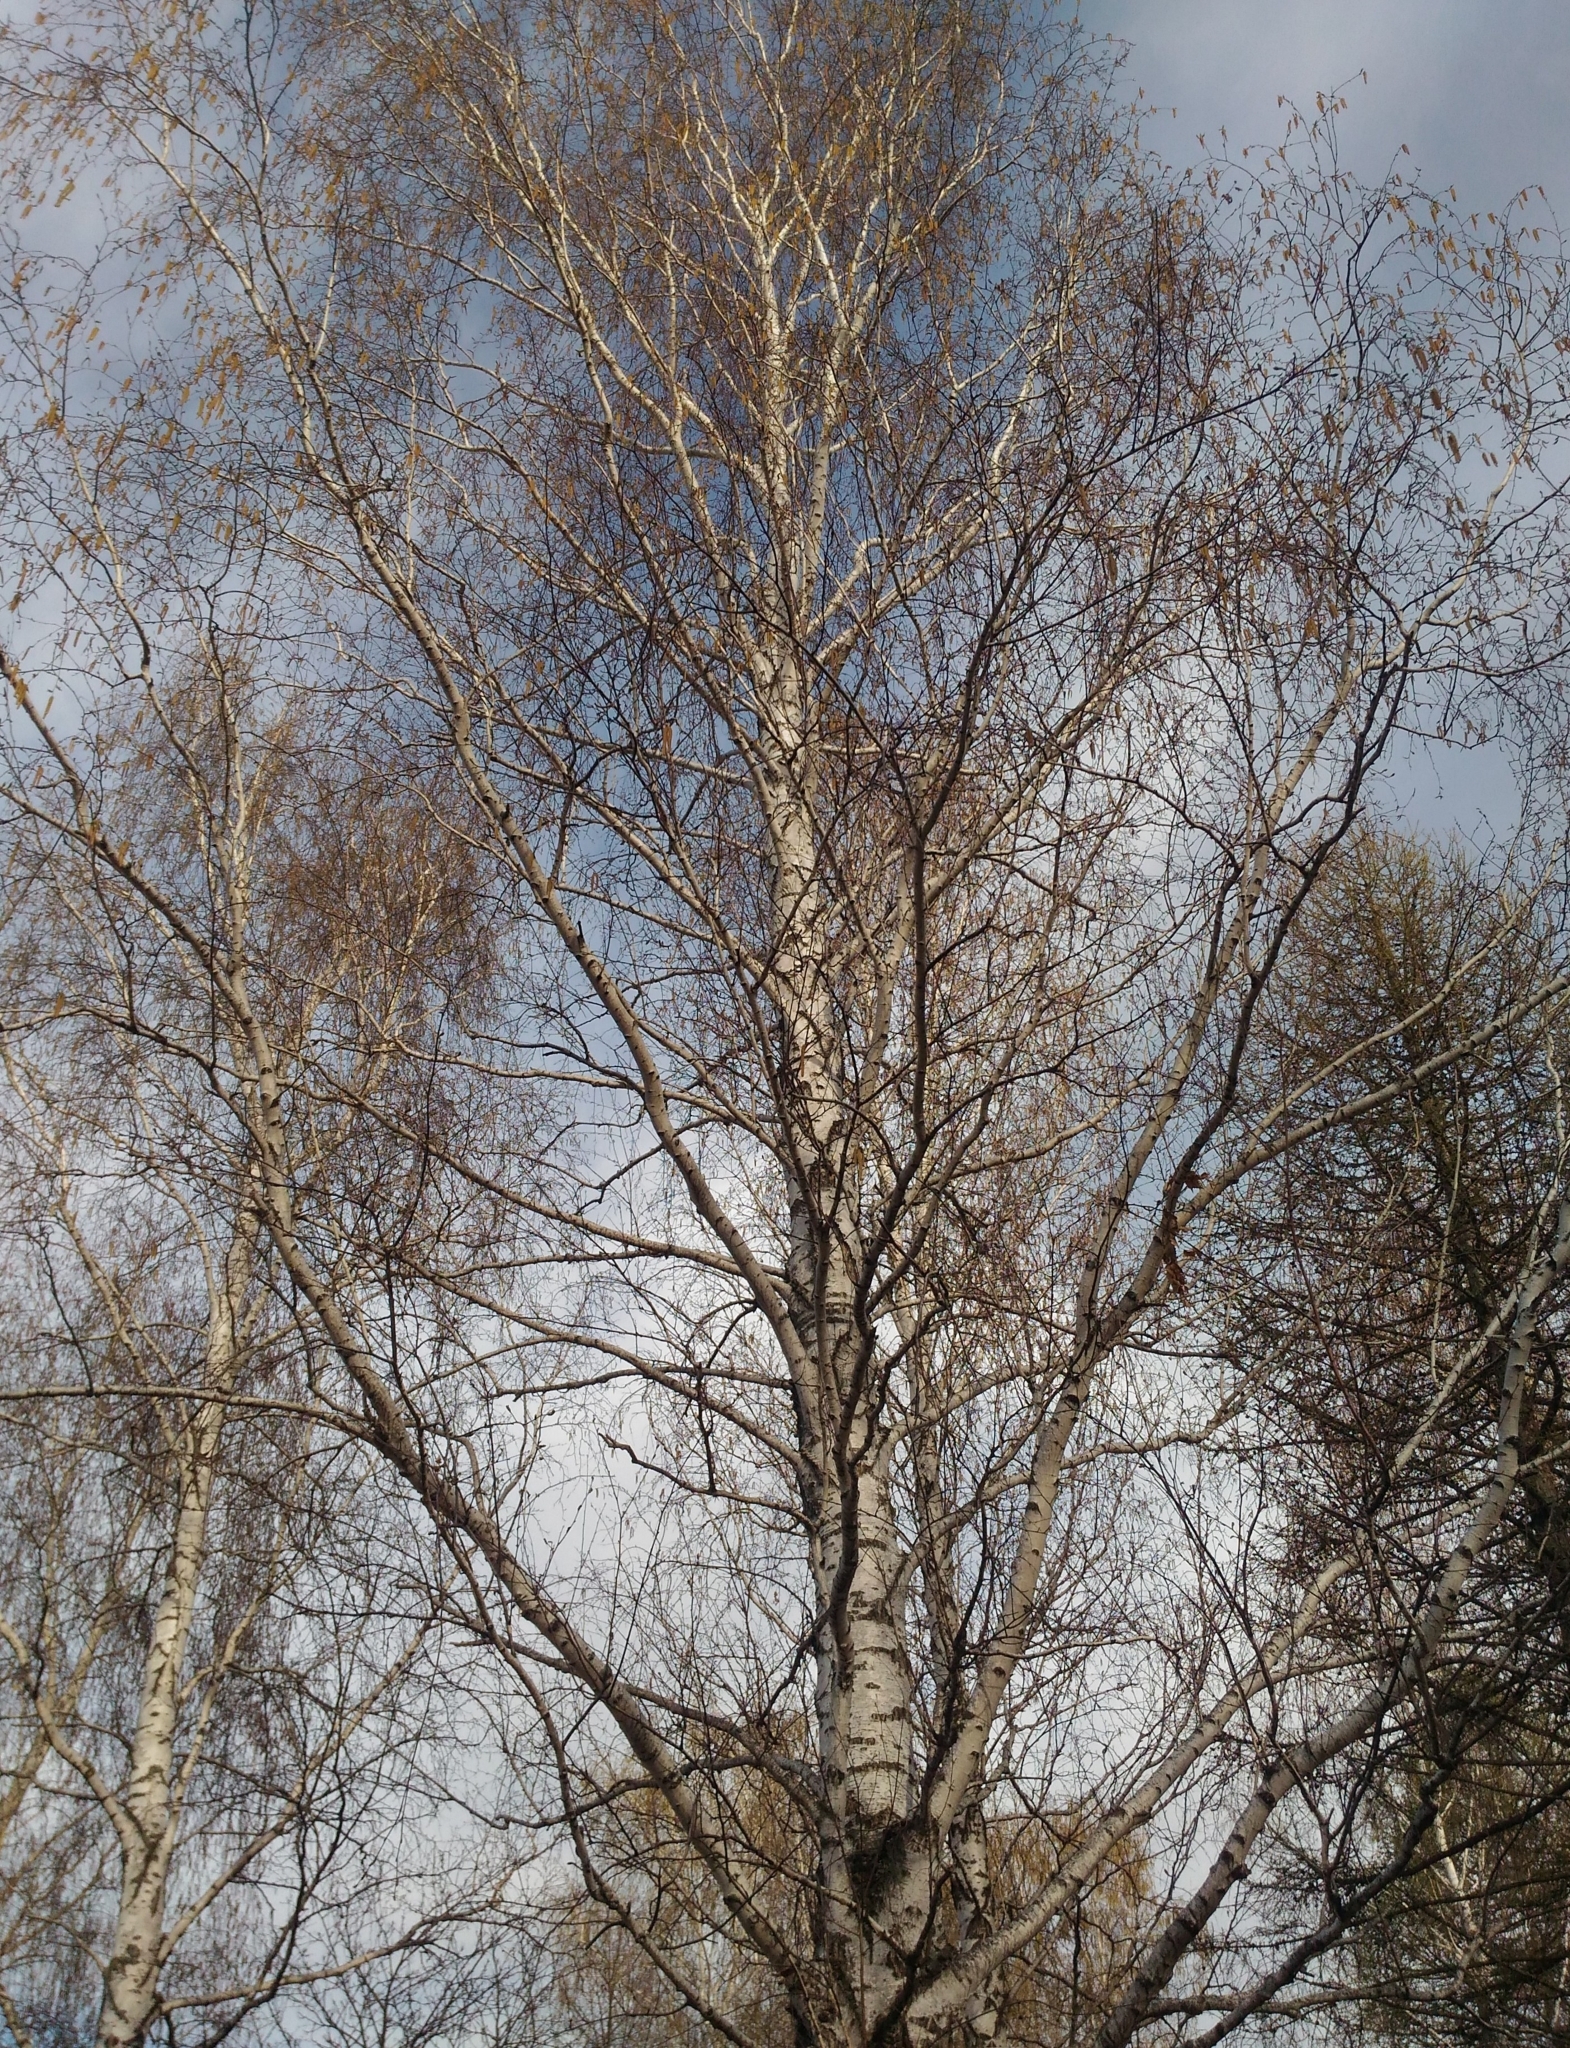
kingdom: Plantae
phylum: Tracheophyta
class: Magnoliopsida
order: Fagales
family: Betulaceae
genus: Betula
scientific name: Betula pendula
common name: Silver birch
